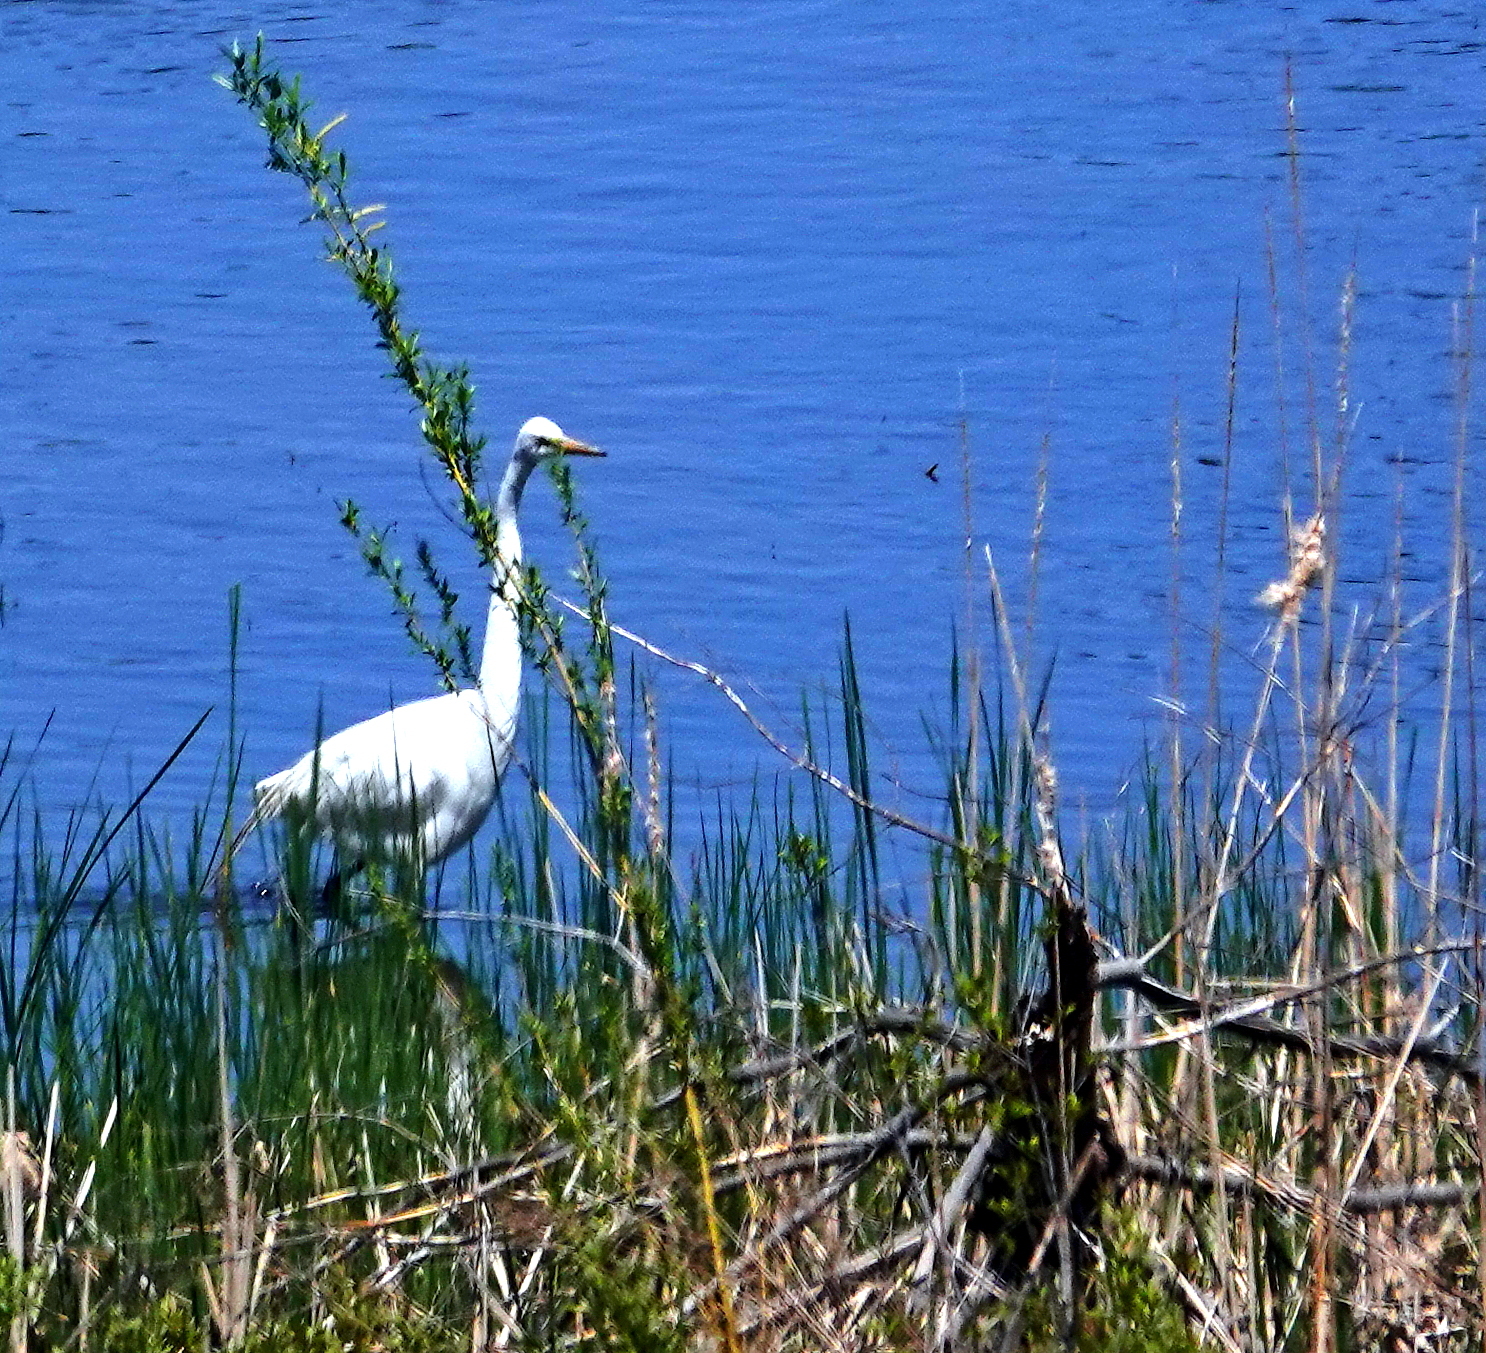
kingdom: Animalia
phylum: Chordata
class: Aves
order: Pelecaniformes
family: Ardeidae
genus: Ardea
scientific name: Ardea alba
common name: Great egret
